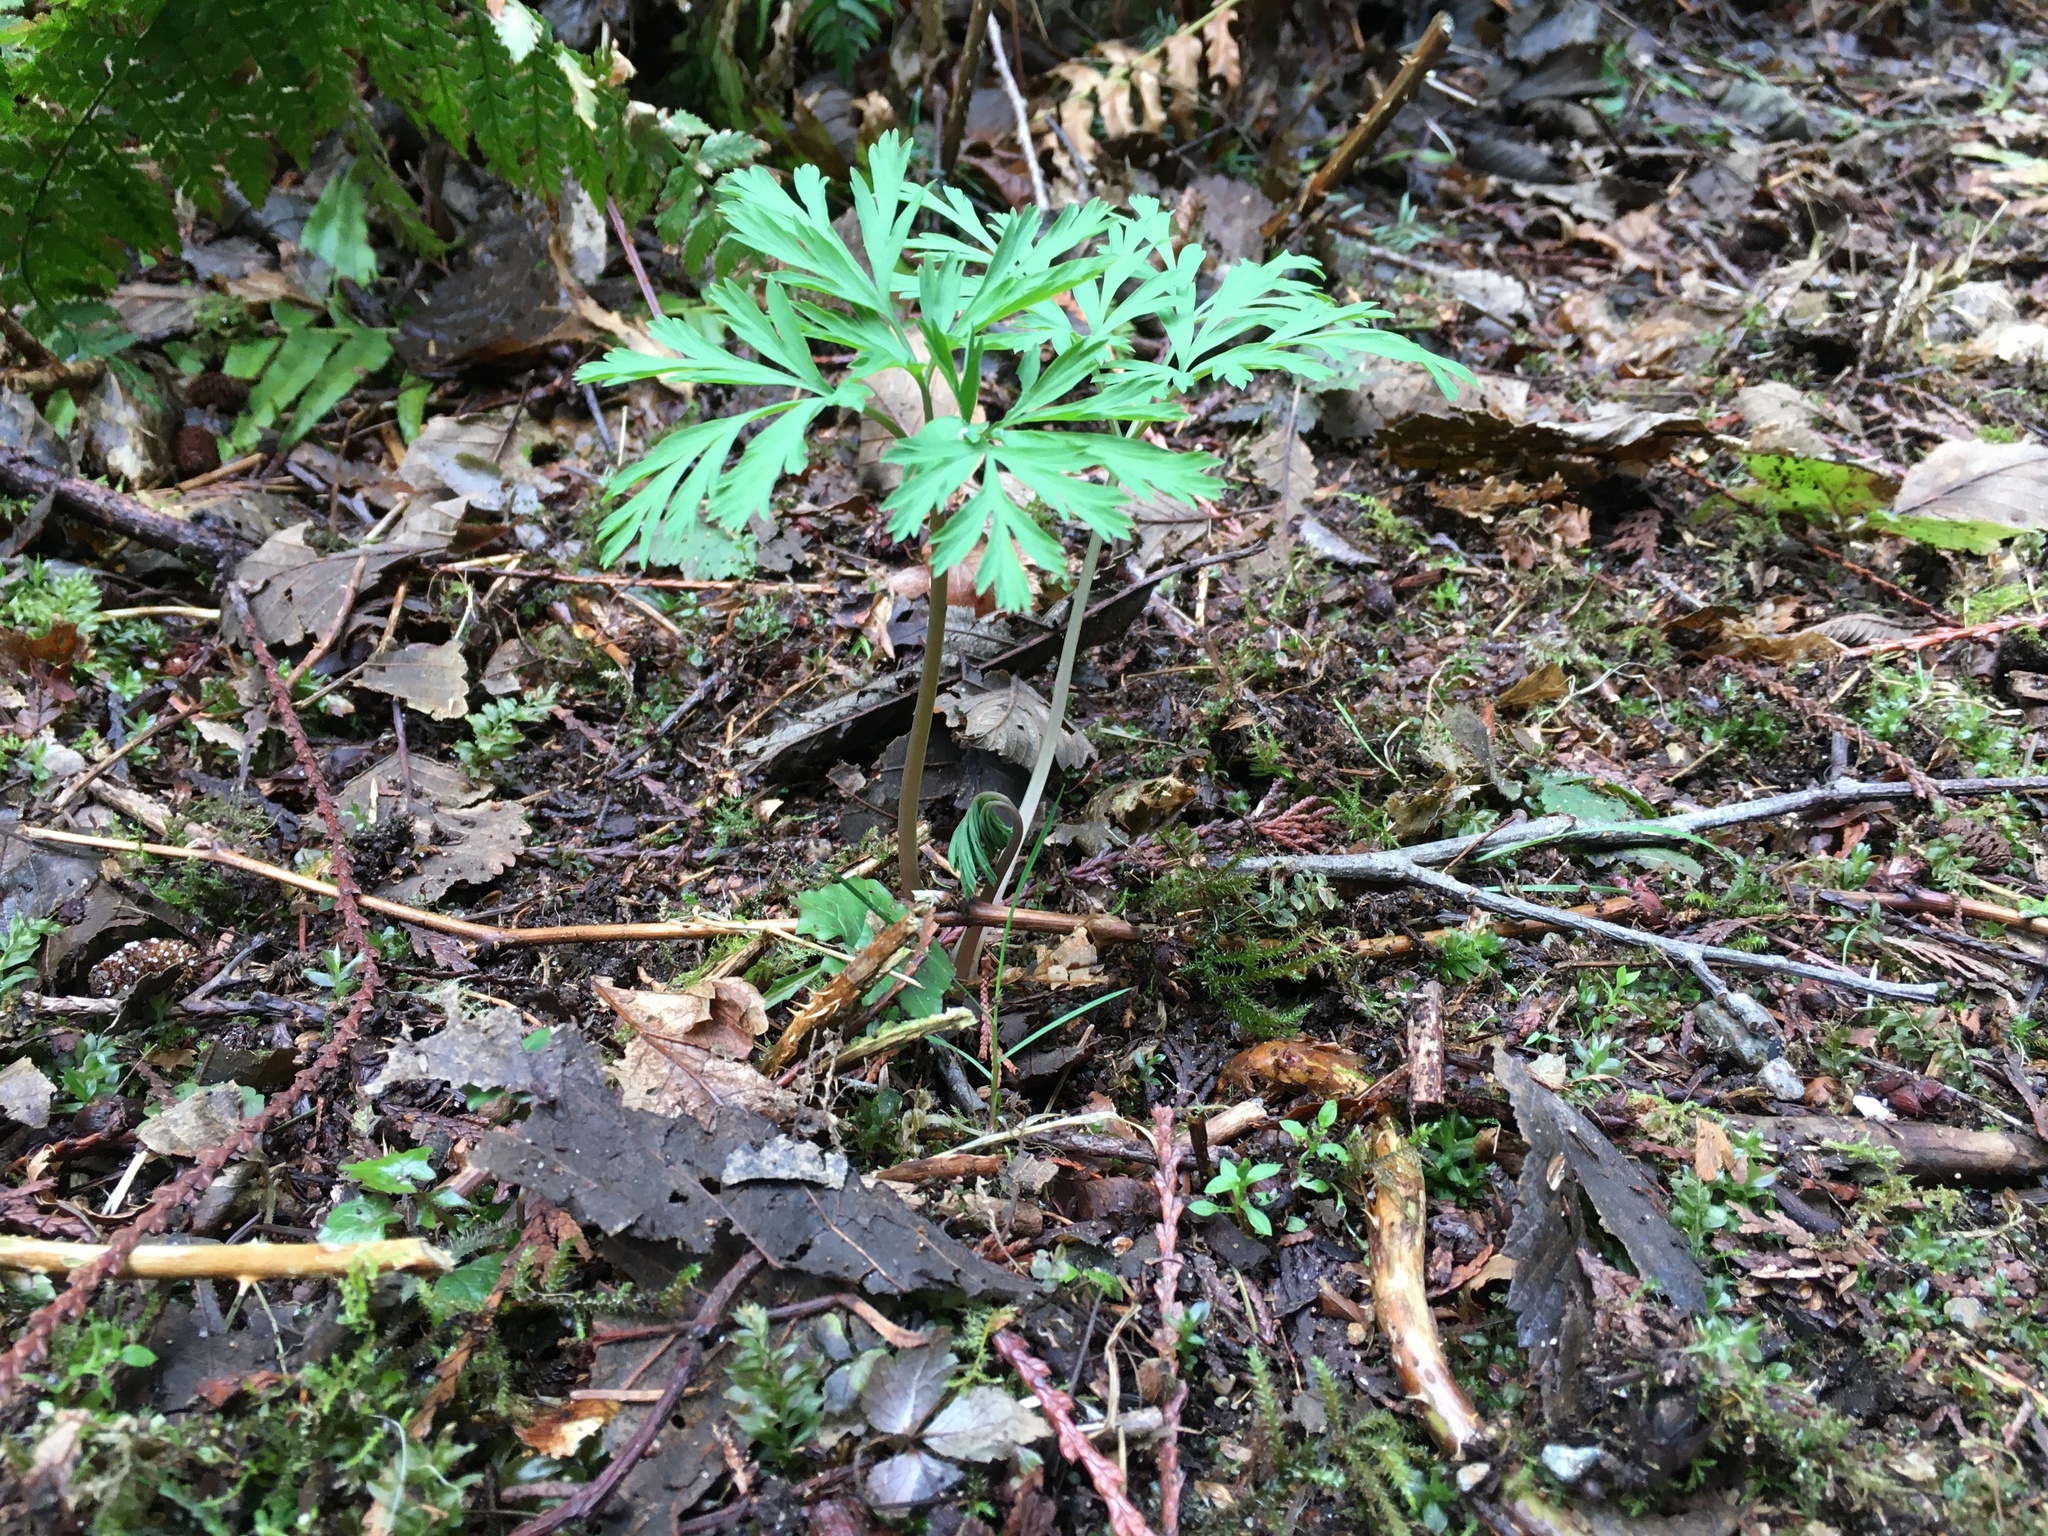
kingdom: Plantae
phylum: Tracheophyta
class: Magnoliopsida
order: Ranunculales
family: Papaveraceae
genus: Dicentra
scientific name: Dicentra formosa
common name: Bleeding-heart
